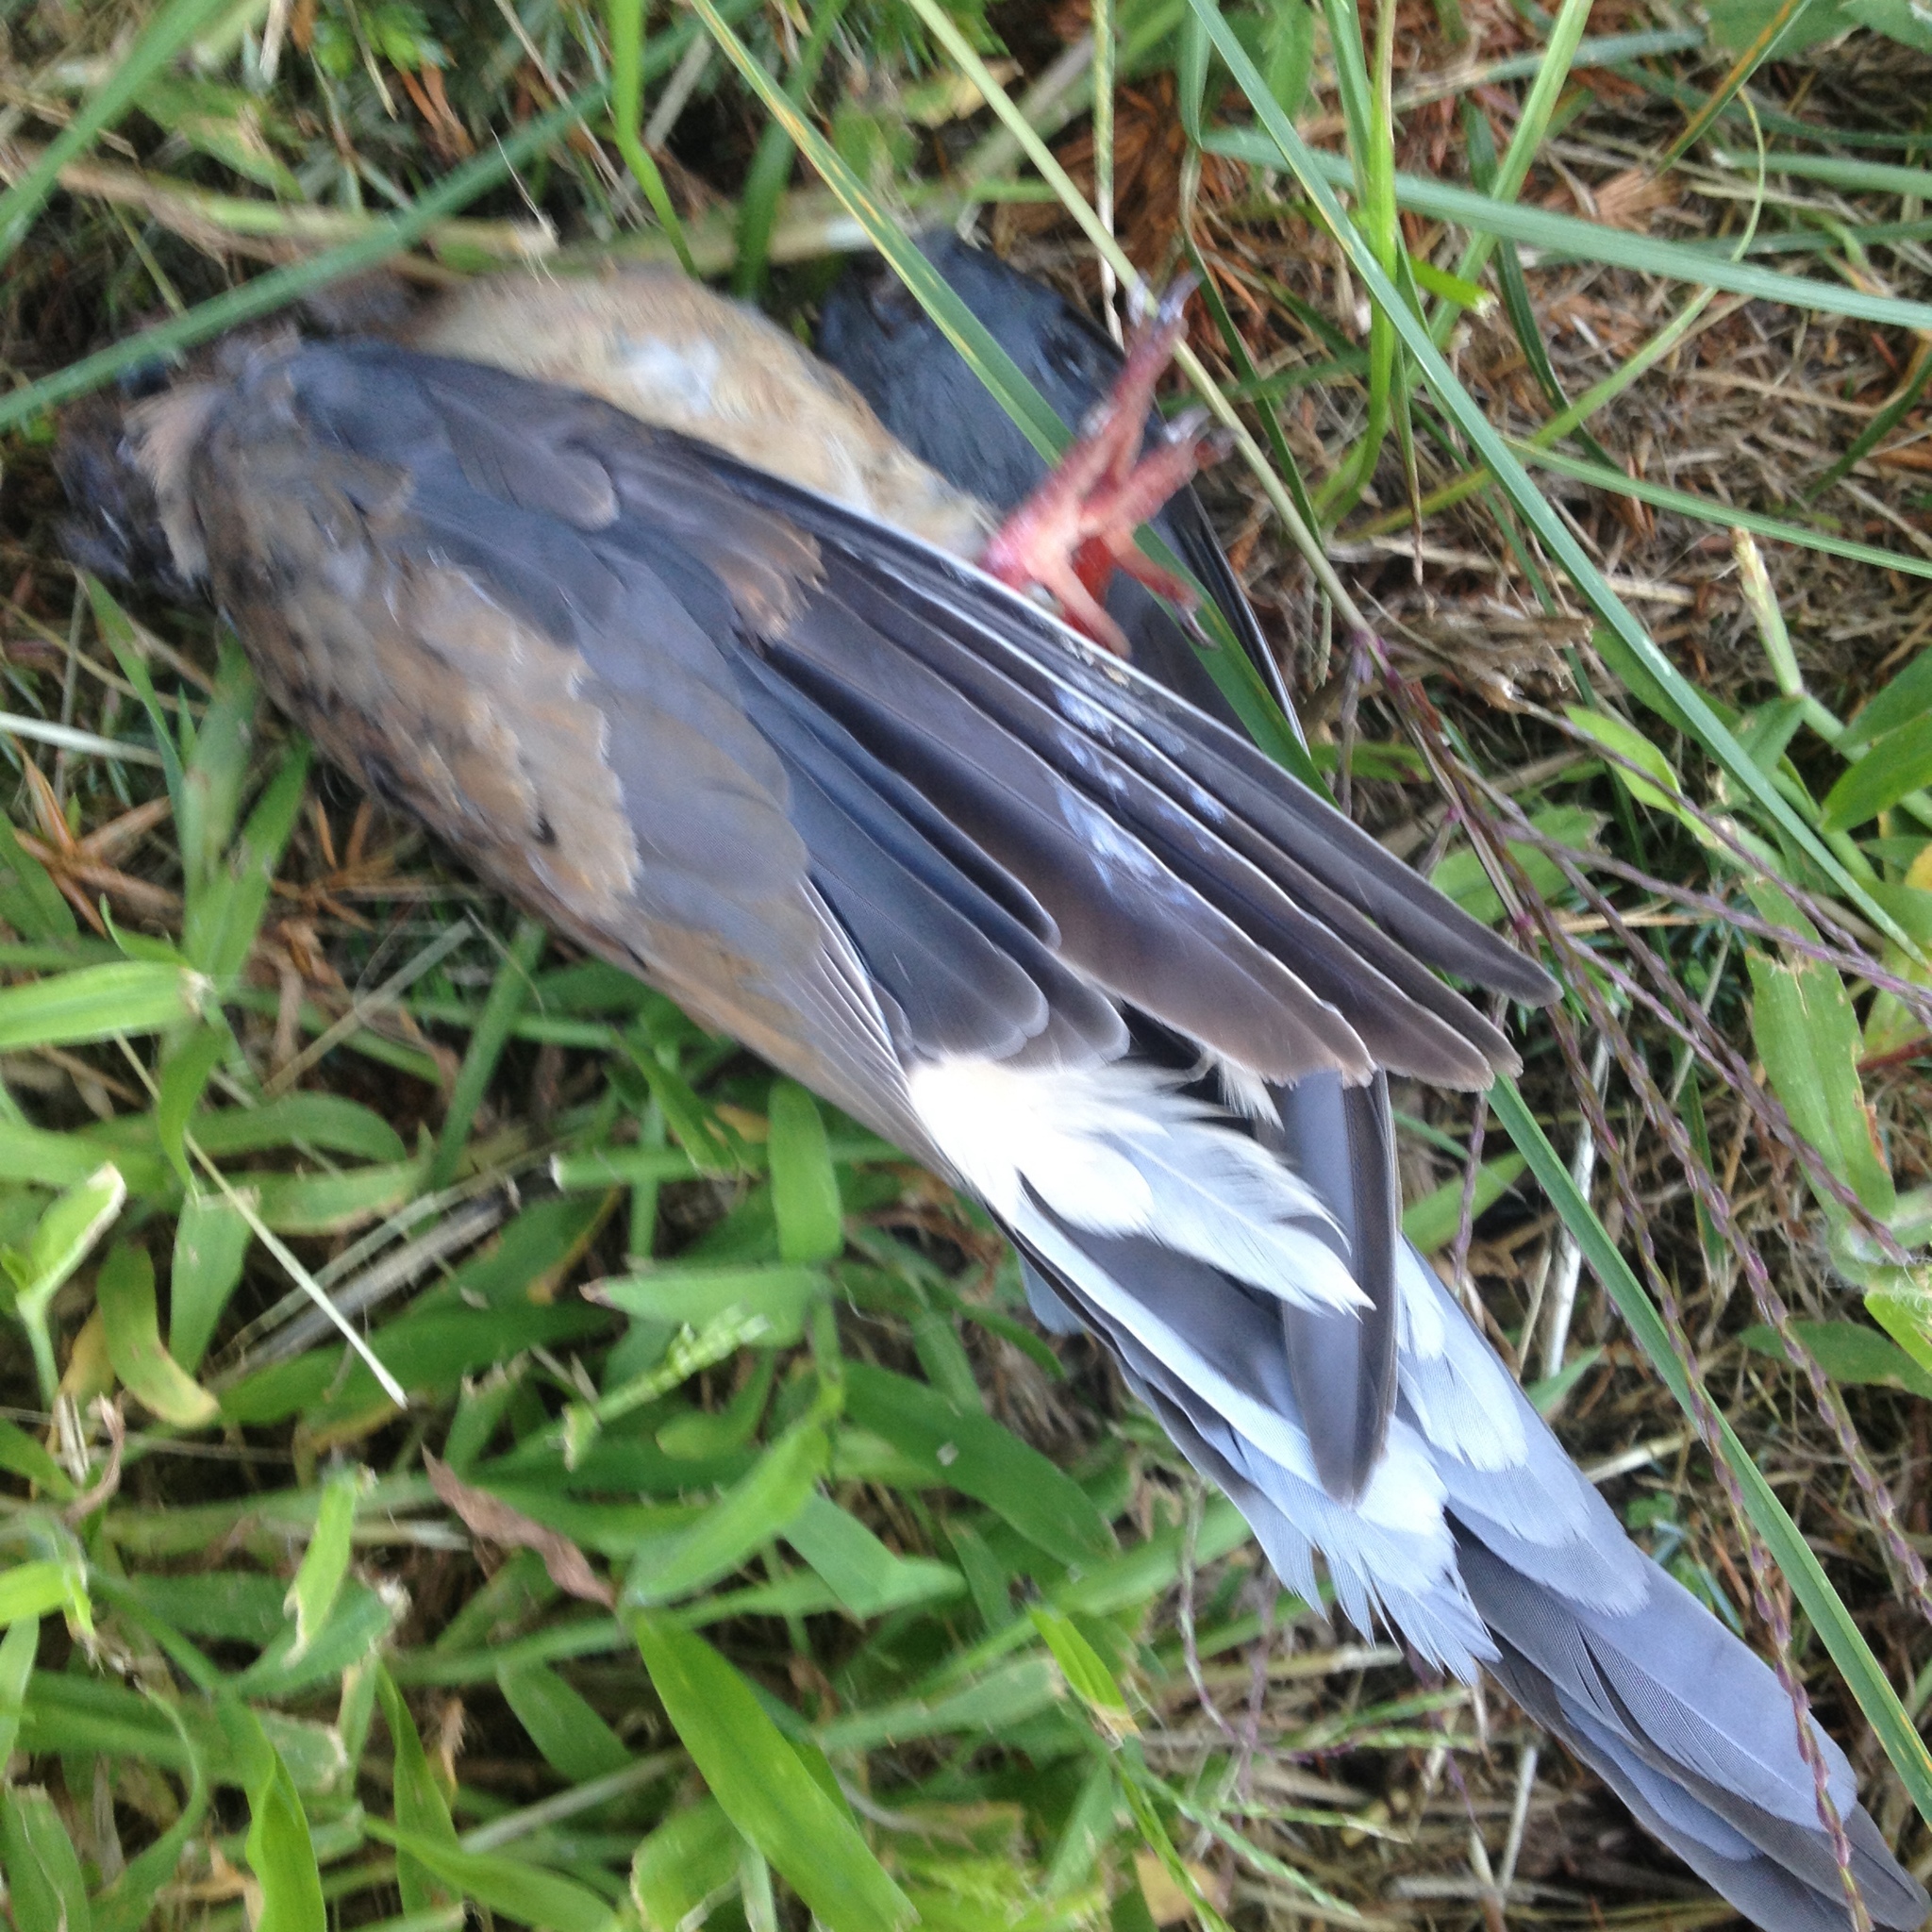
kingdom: Animalia
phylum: Chordata
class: Aves
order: Columbiformes
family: Columbidae
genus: Zenaida
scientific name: Zenaida macroura
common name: Mourning dove
